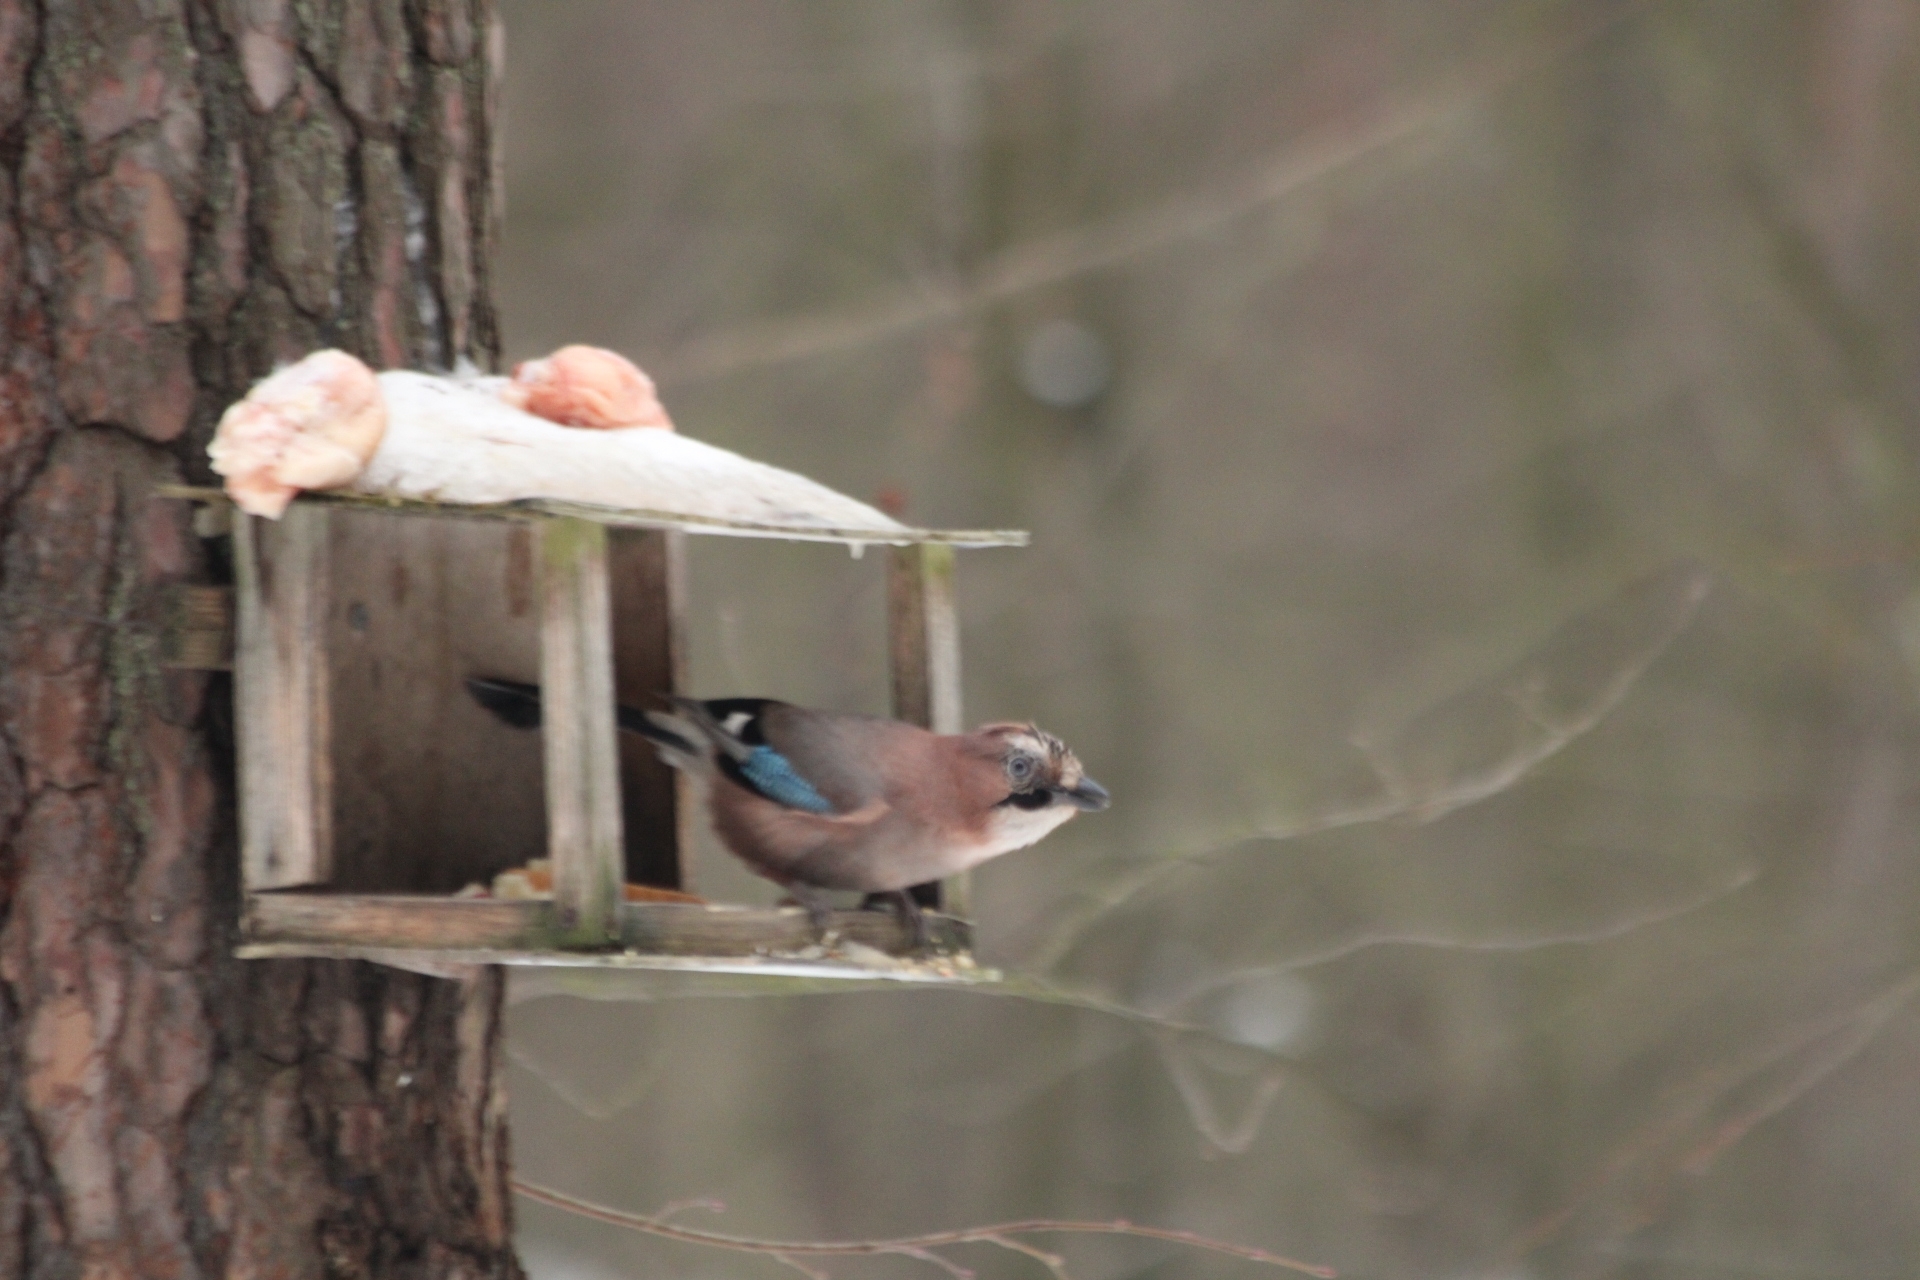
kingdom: Animalia
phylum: Chordata
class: Aves
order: Passeriformes
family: Corvidae
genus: Garrulus
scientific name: Garrulus glandarius
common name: Eurasian jay
